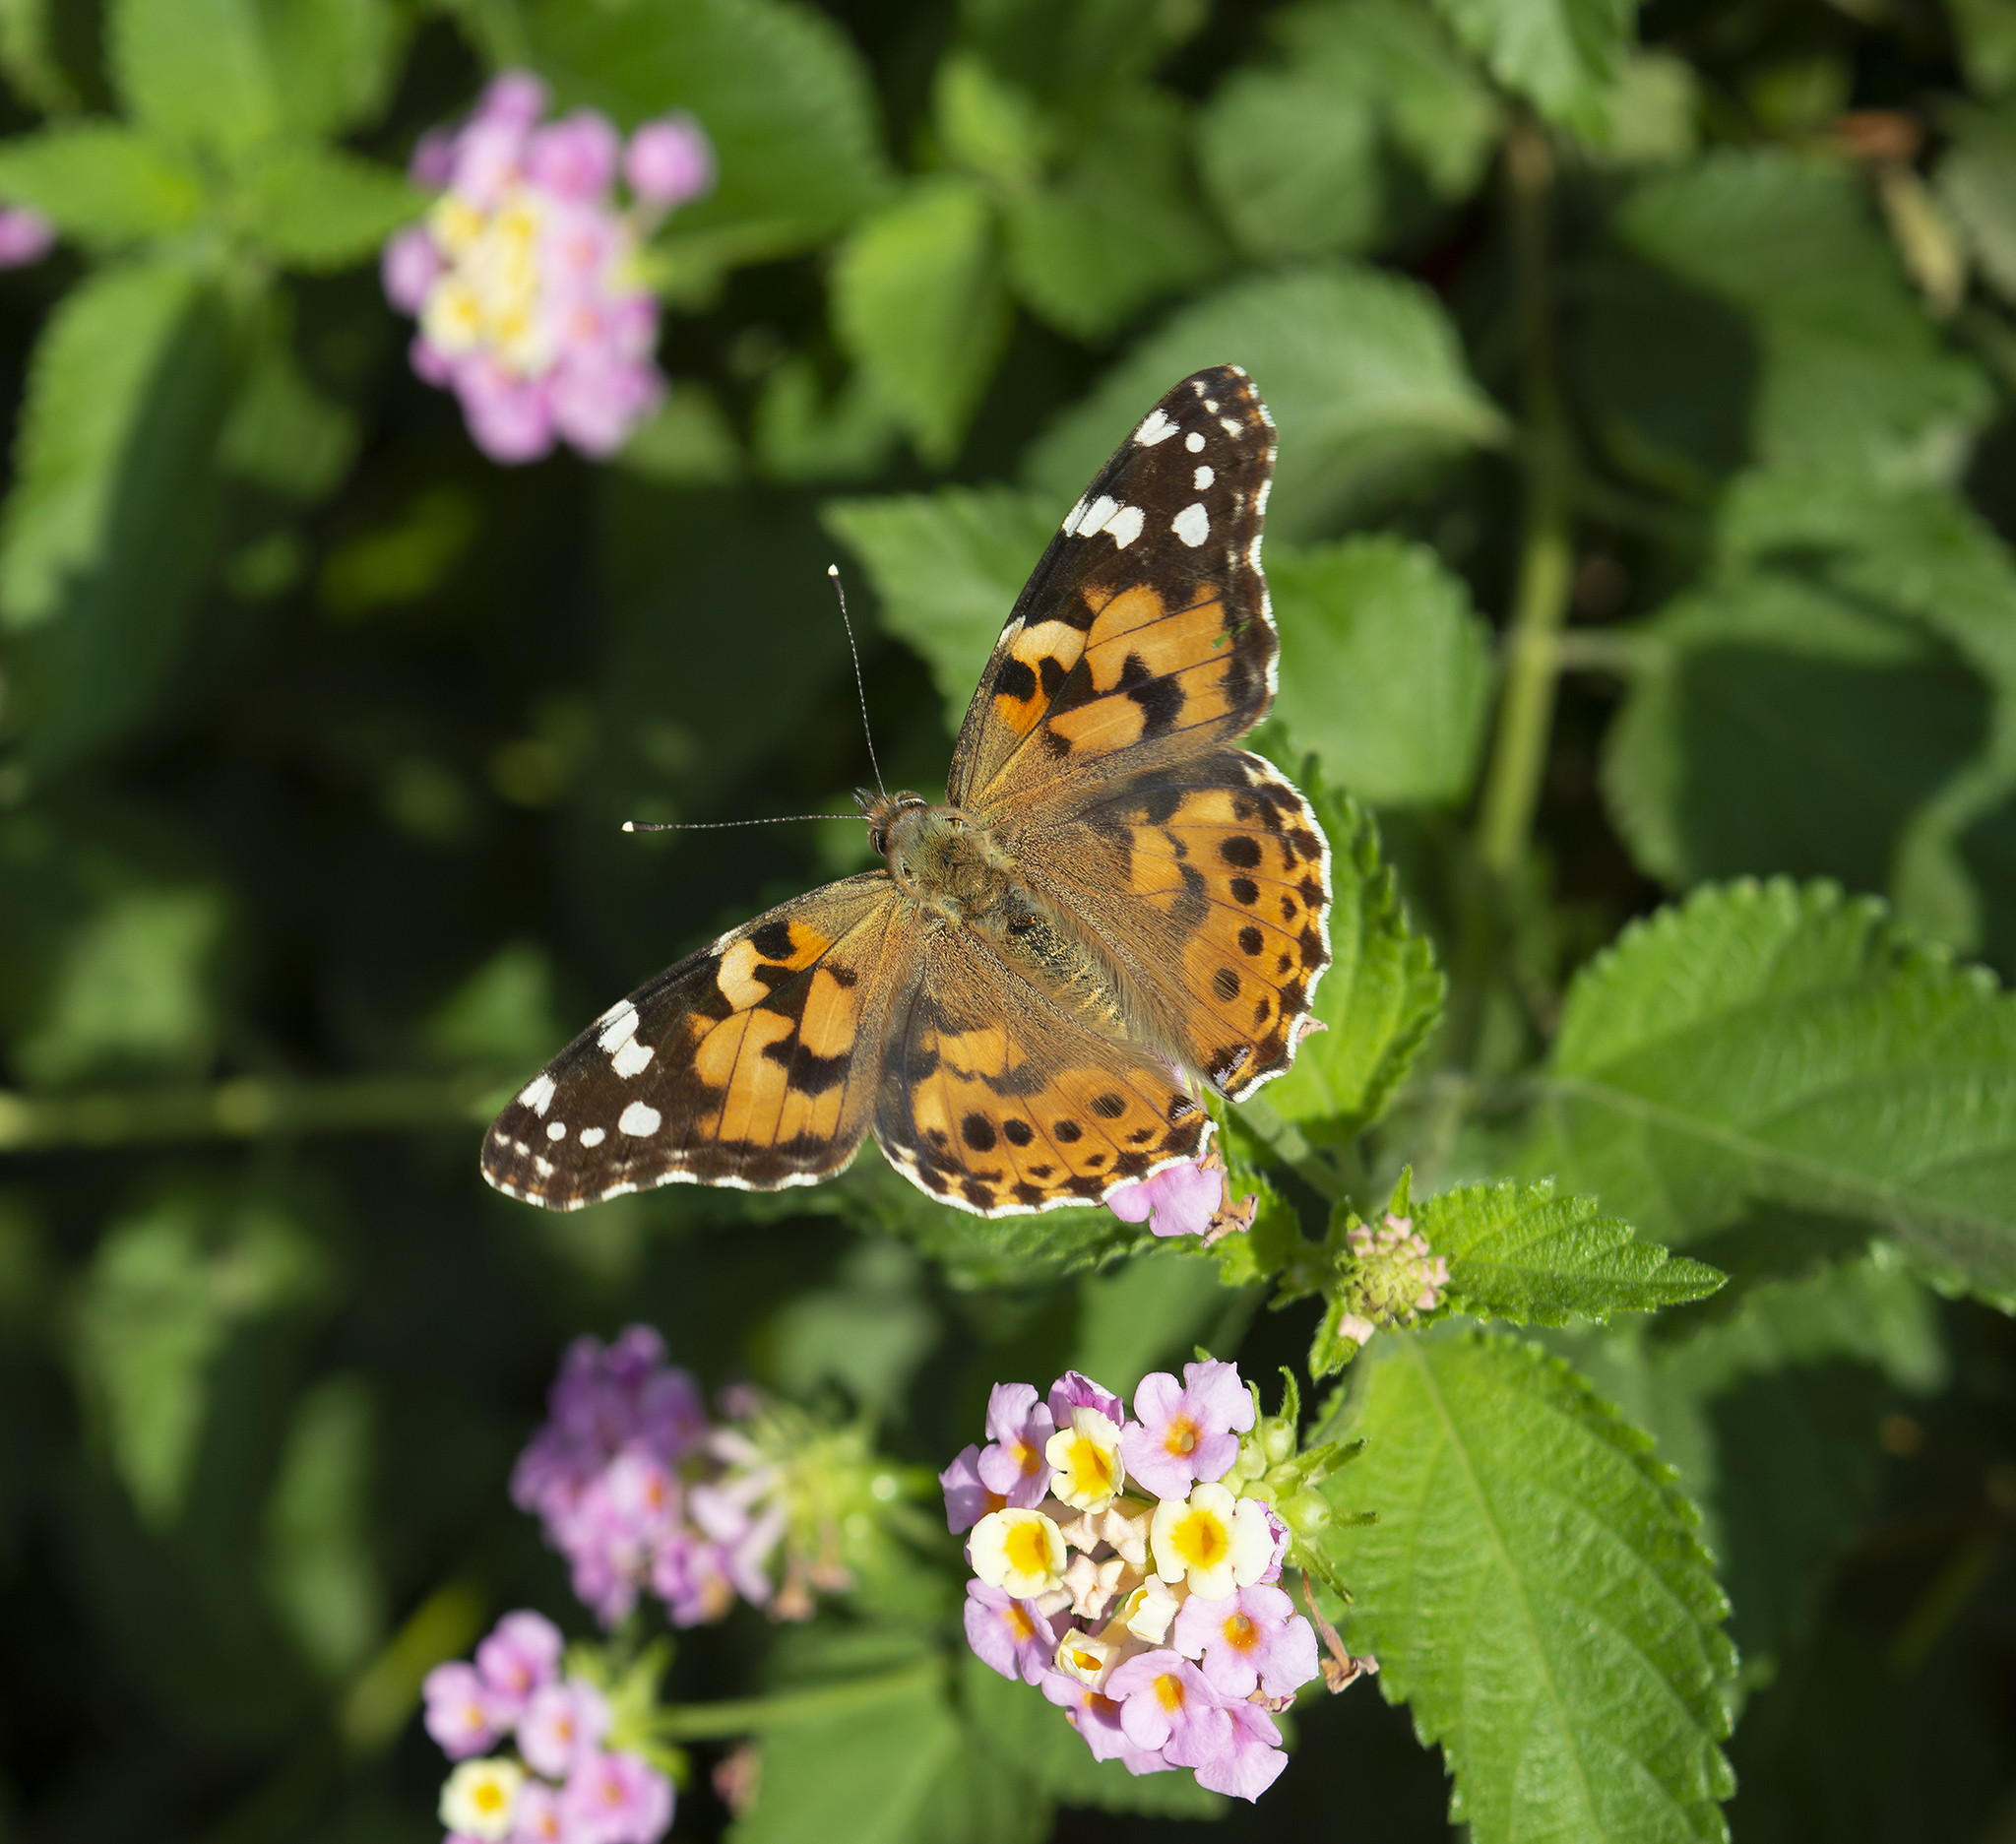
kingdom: Animalia
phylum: Arthropoda
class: Insecta
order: Lepidoptera
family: Nymphalidae
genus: Vanessa
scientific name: Vanessa cardui
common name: Painted lady
